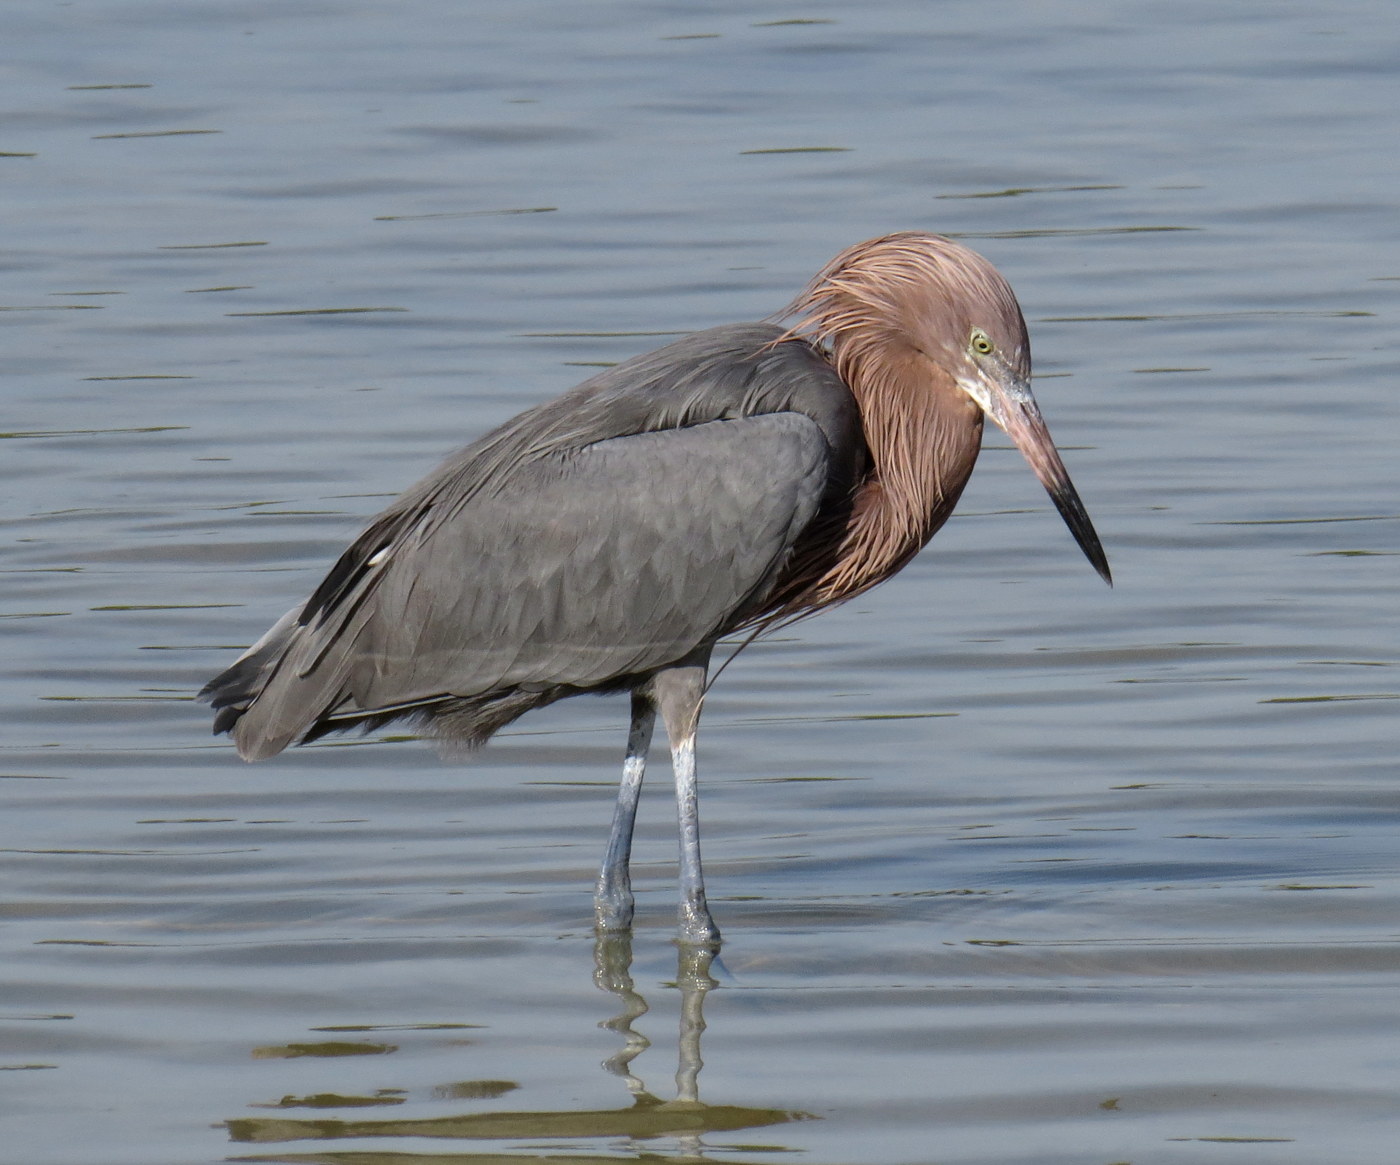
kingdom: Animalia
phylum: Chordata
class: Aves
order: Pelecaniformes
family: Ardeidae
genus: Egretta
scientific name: Egretta rufescens
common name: Reddish egret
